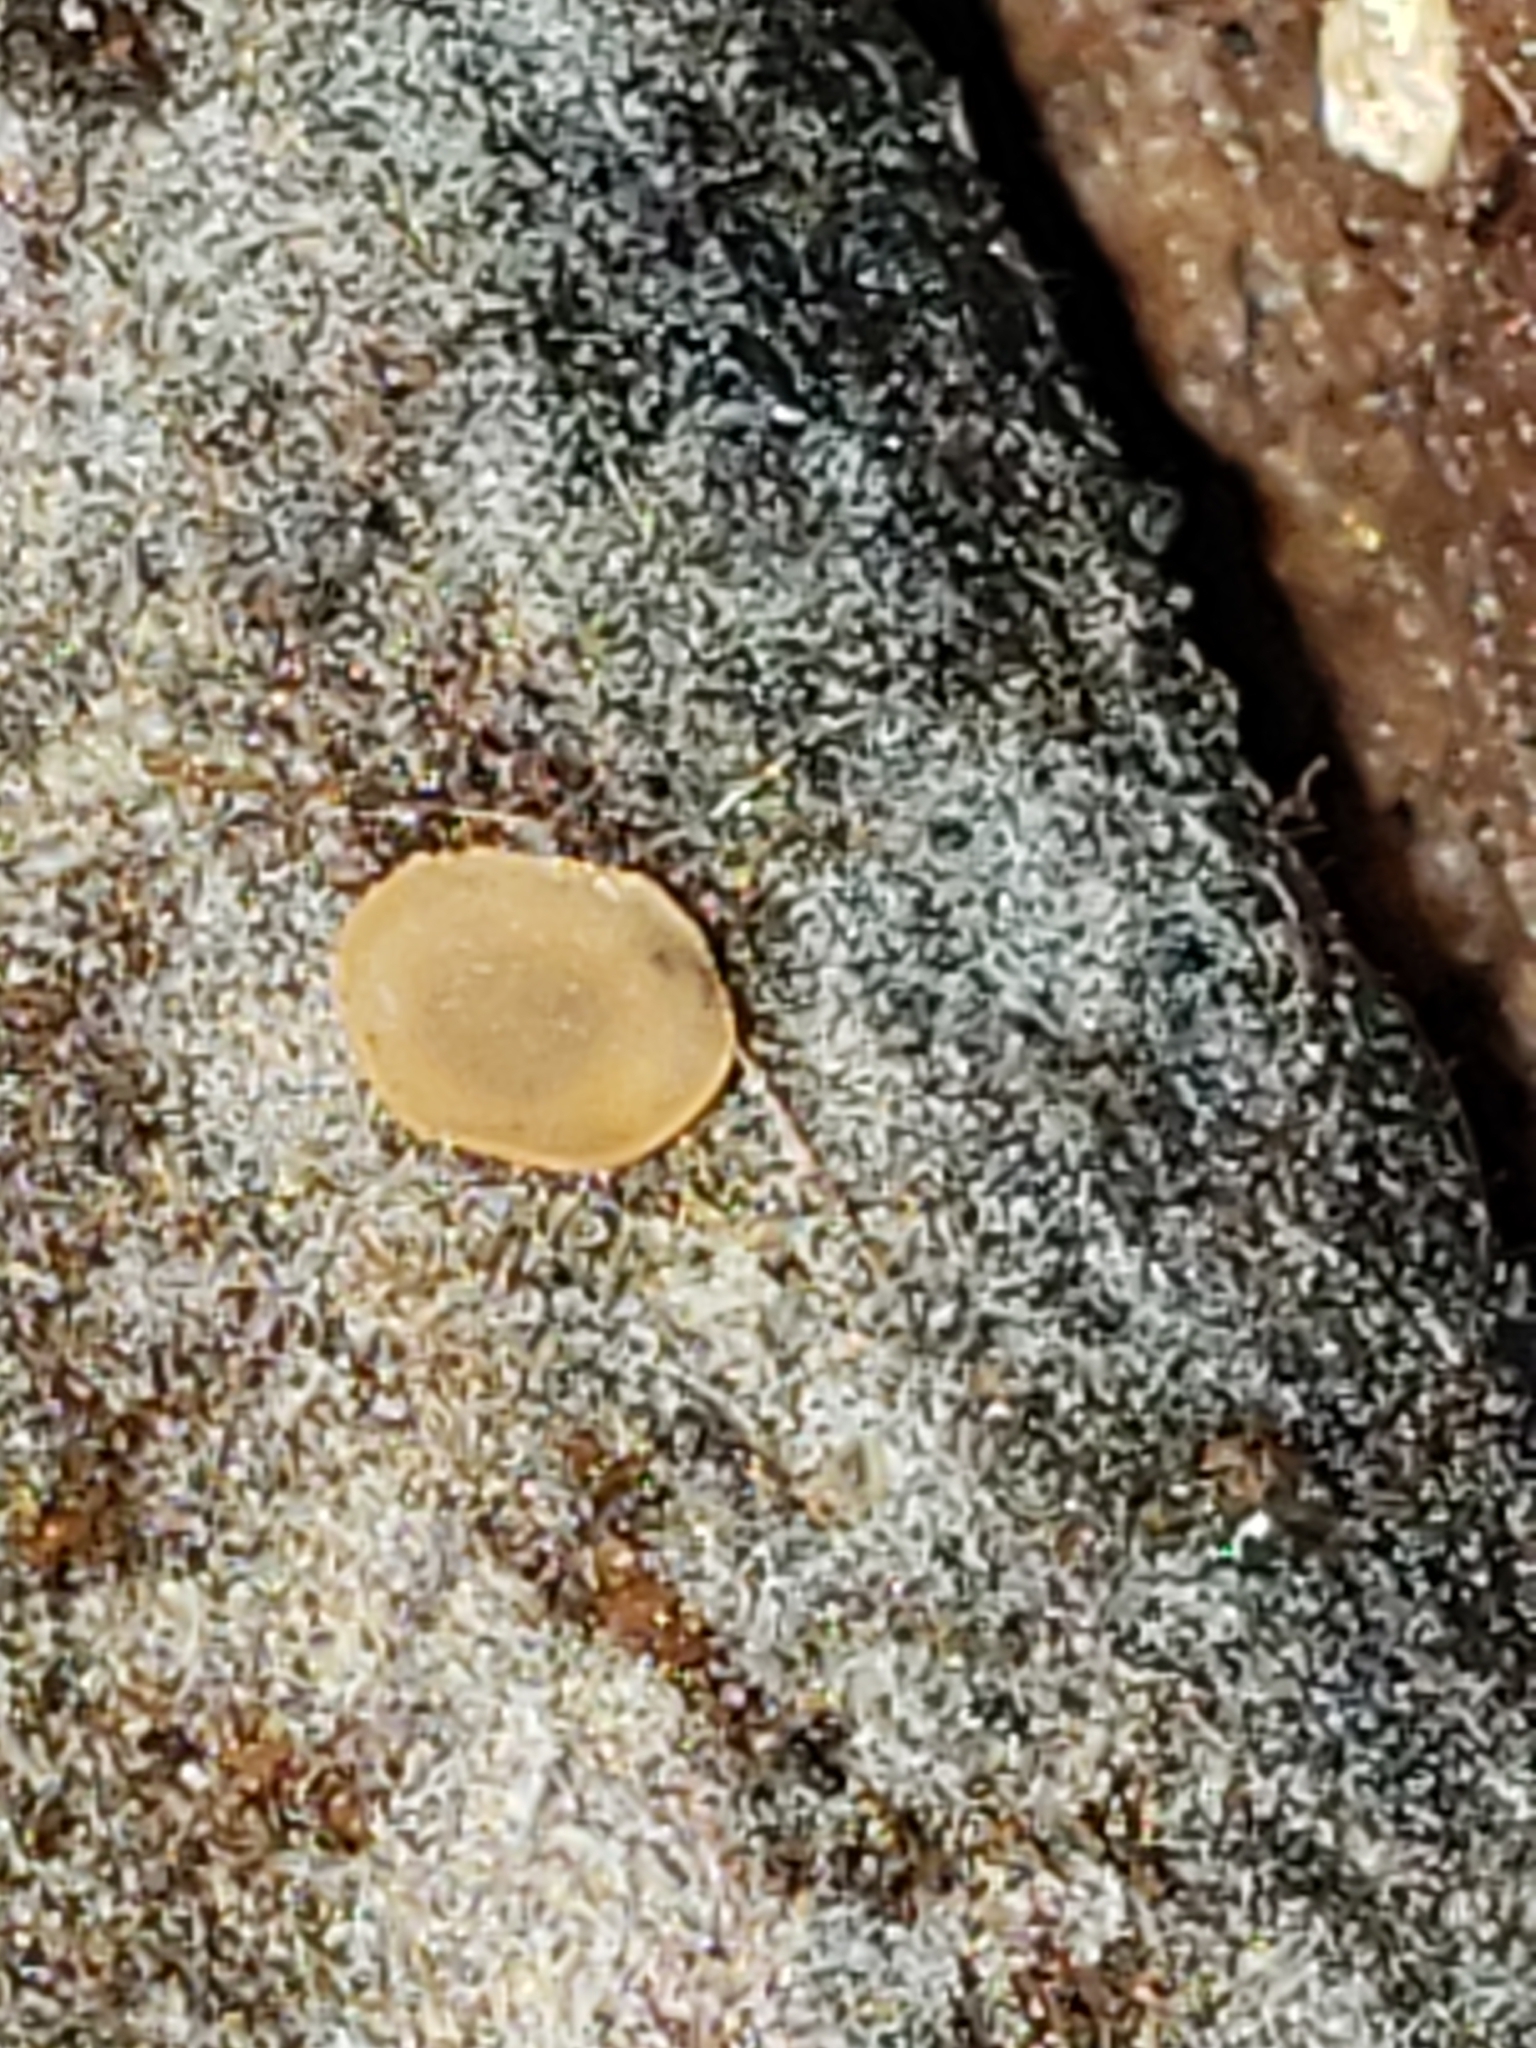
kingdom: Fungi
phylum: Ascomycota
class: Orbiliomycetes
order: Orbiliales
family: Orbiliaceae
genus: Orbilia
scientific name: Orbilia
